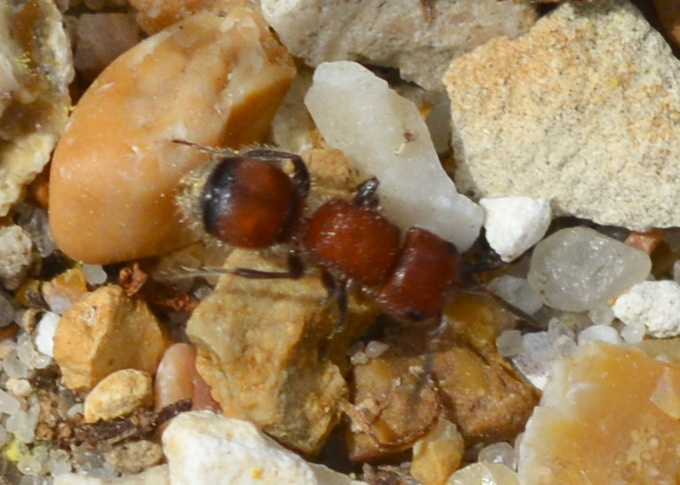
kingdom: Animalia
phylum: Arthropoda
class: Insecta
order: Hymenoptera
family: Mutillidae
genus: Pseudomethoca
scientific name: Pseudomethoca
